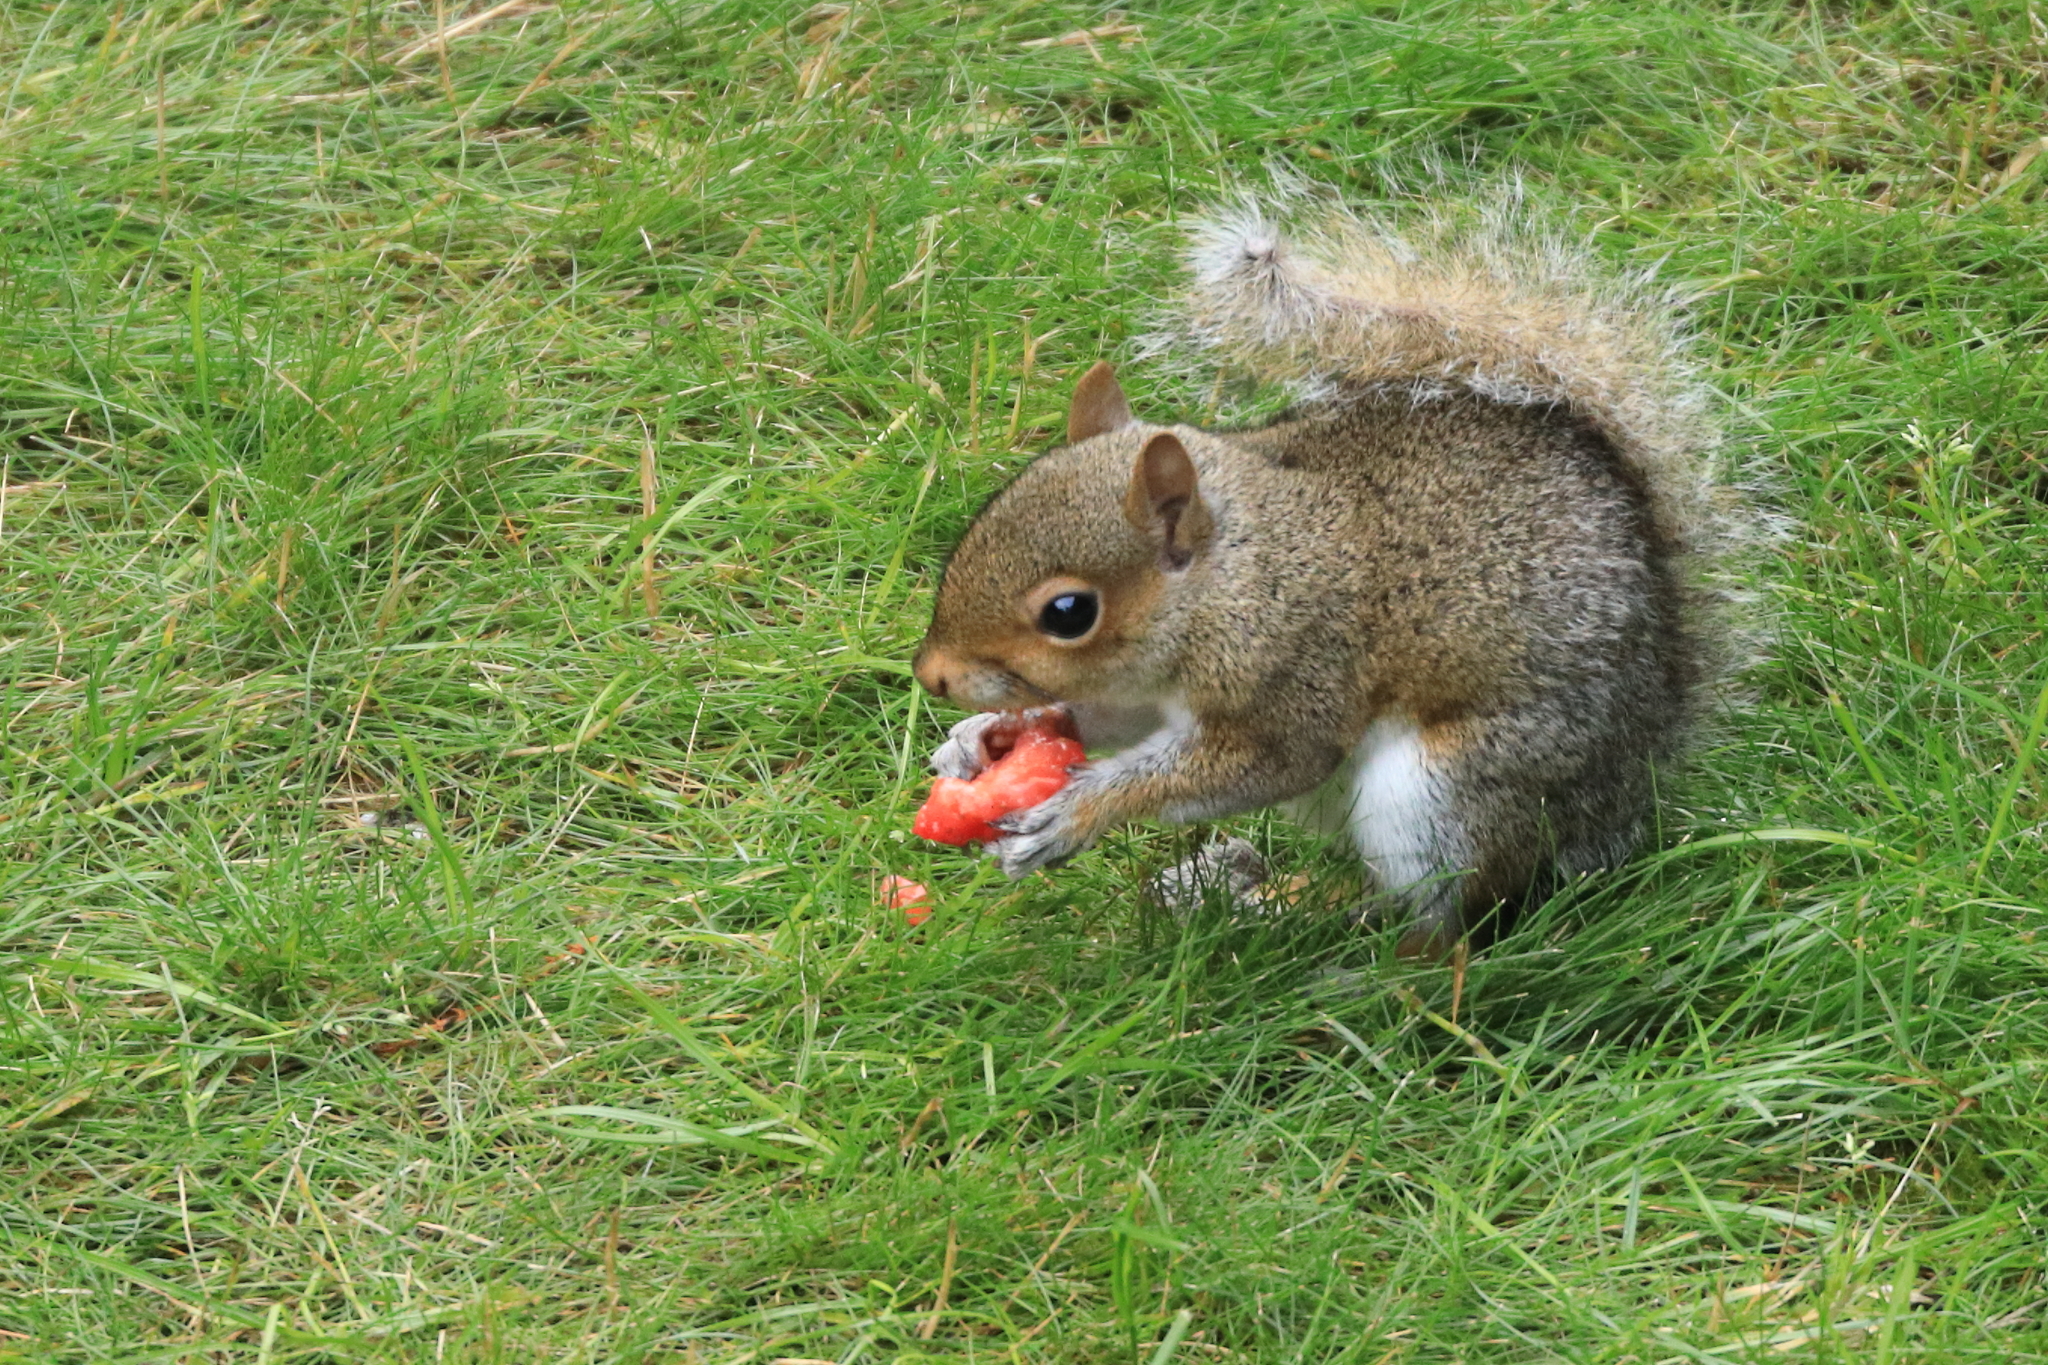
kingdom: Animalia
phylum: Chordata
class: Mammalia
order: Rodentia
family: Sciuridae
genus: Sciurus
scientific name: Sciurus carolinensis
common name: Eastern gray squirrel
